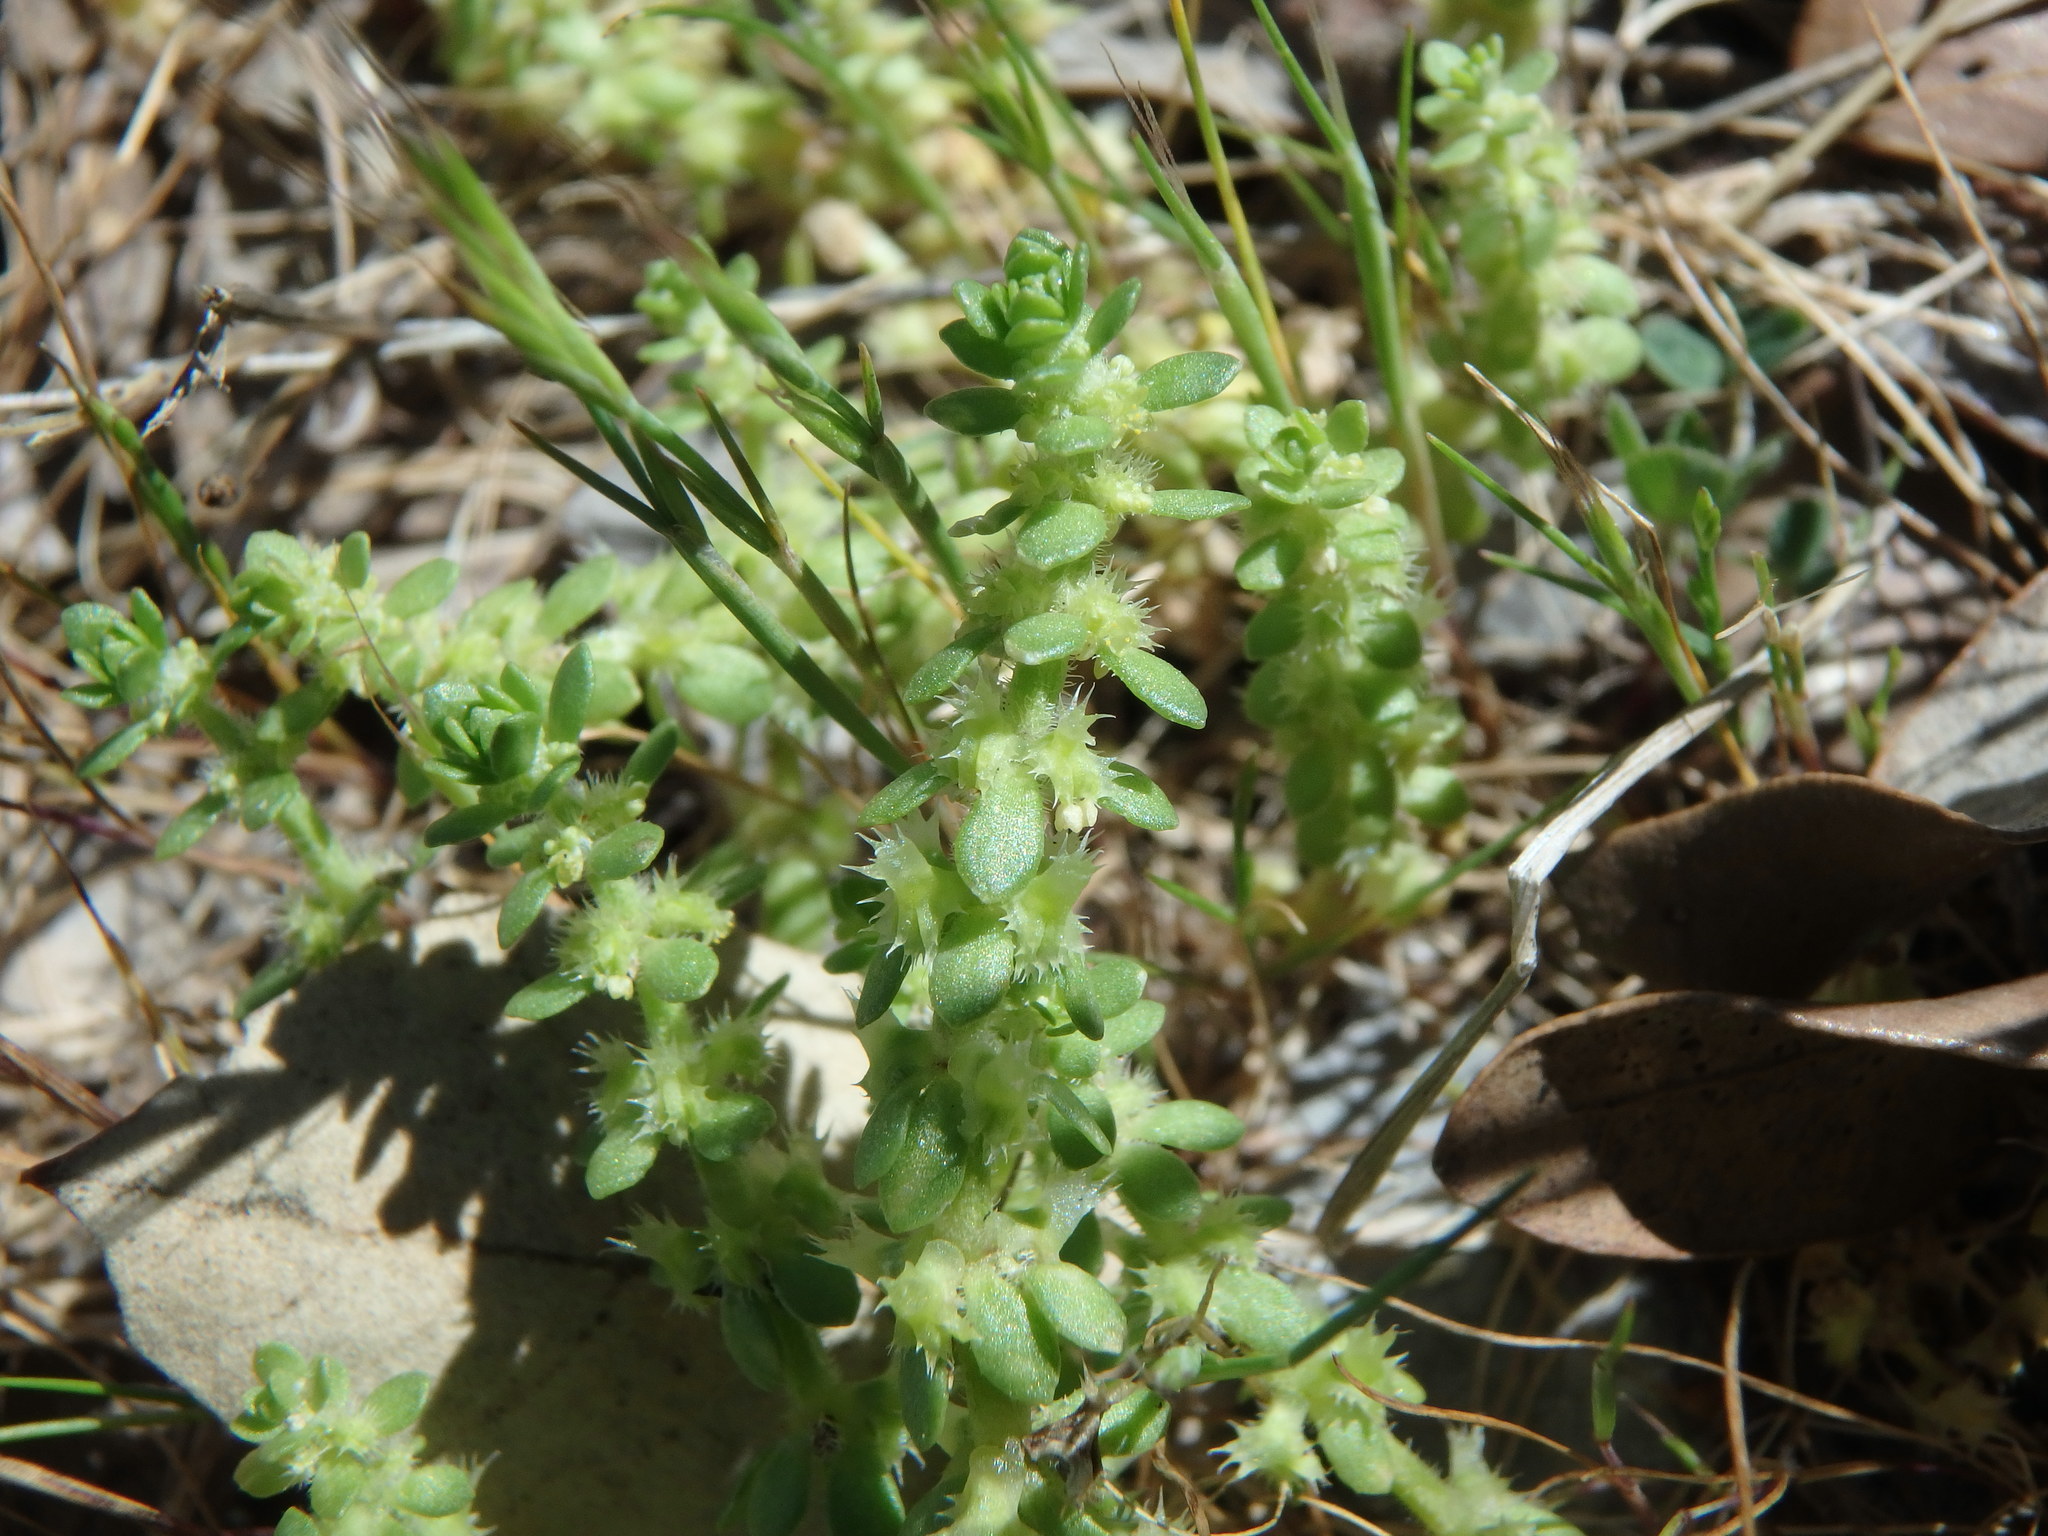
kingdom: Plantae
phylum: Tracheophyta
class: Magnoliopsida
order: Gentianales
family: Rubiaceae
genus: Valantia
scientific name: Valantia muralis
